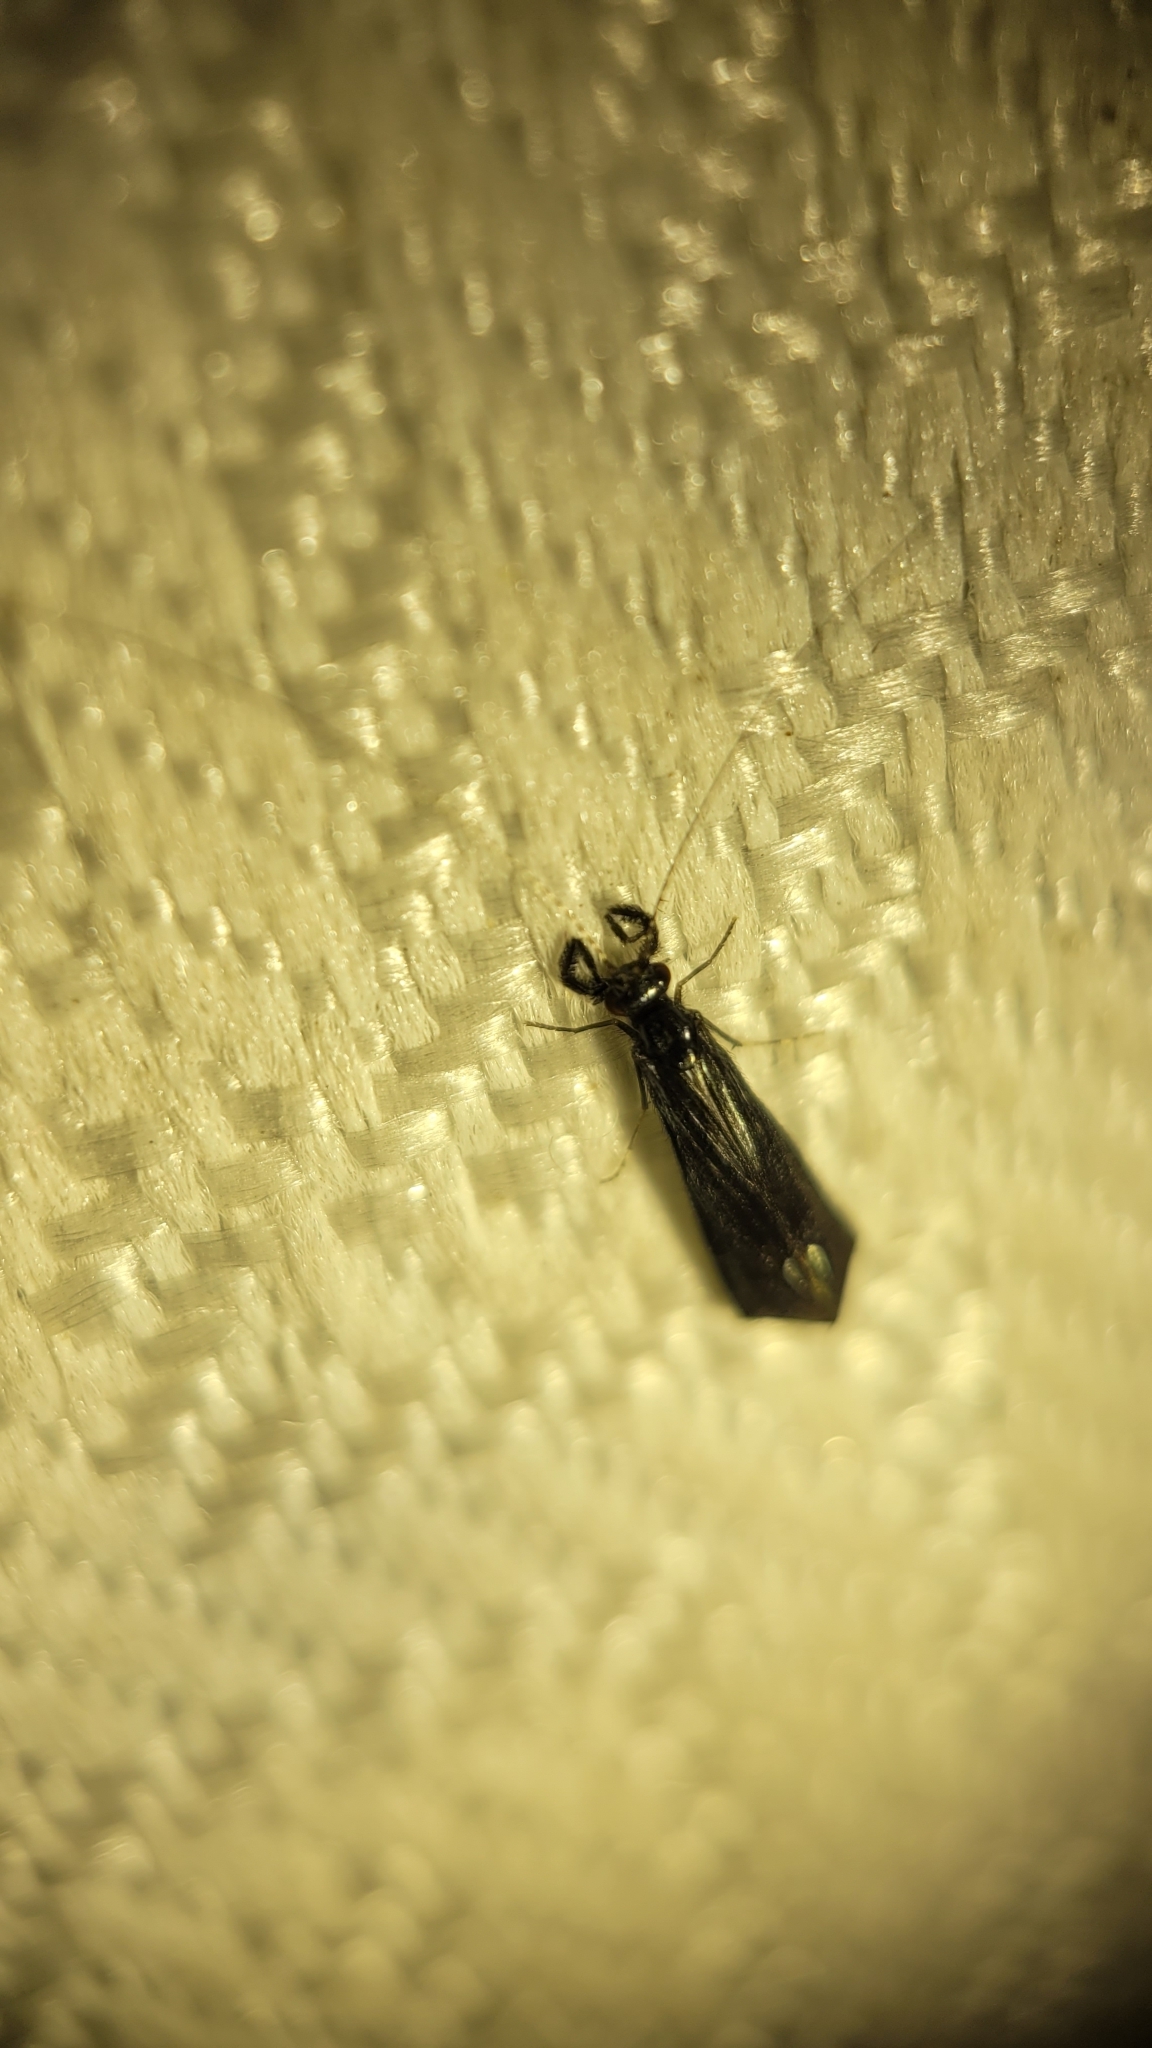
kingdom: Animalia
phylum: Arthropoda
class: Insecta
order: Trichoptera
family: Leptoceridae
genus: Mystacides
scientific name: Mystacides sepulchralis
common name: Black dancer caddisfly
